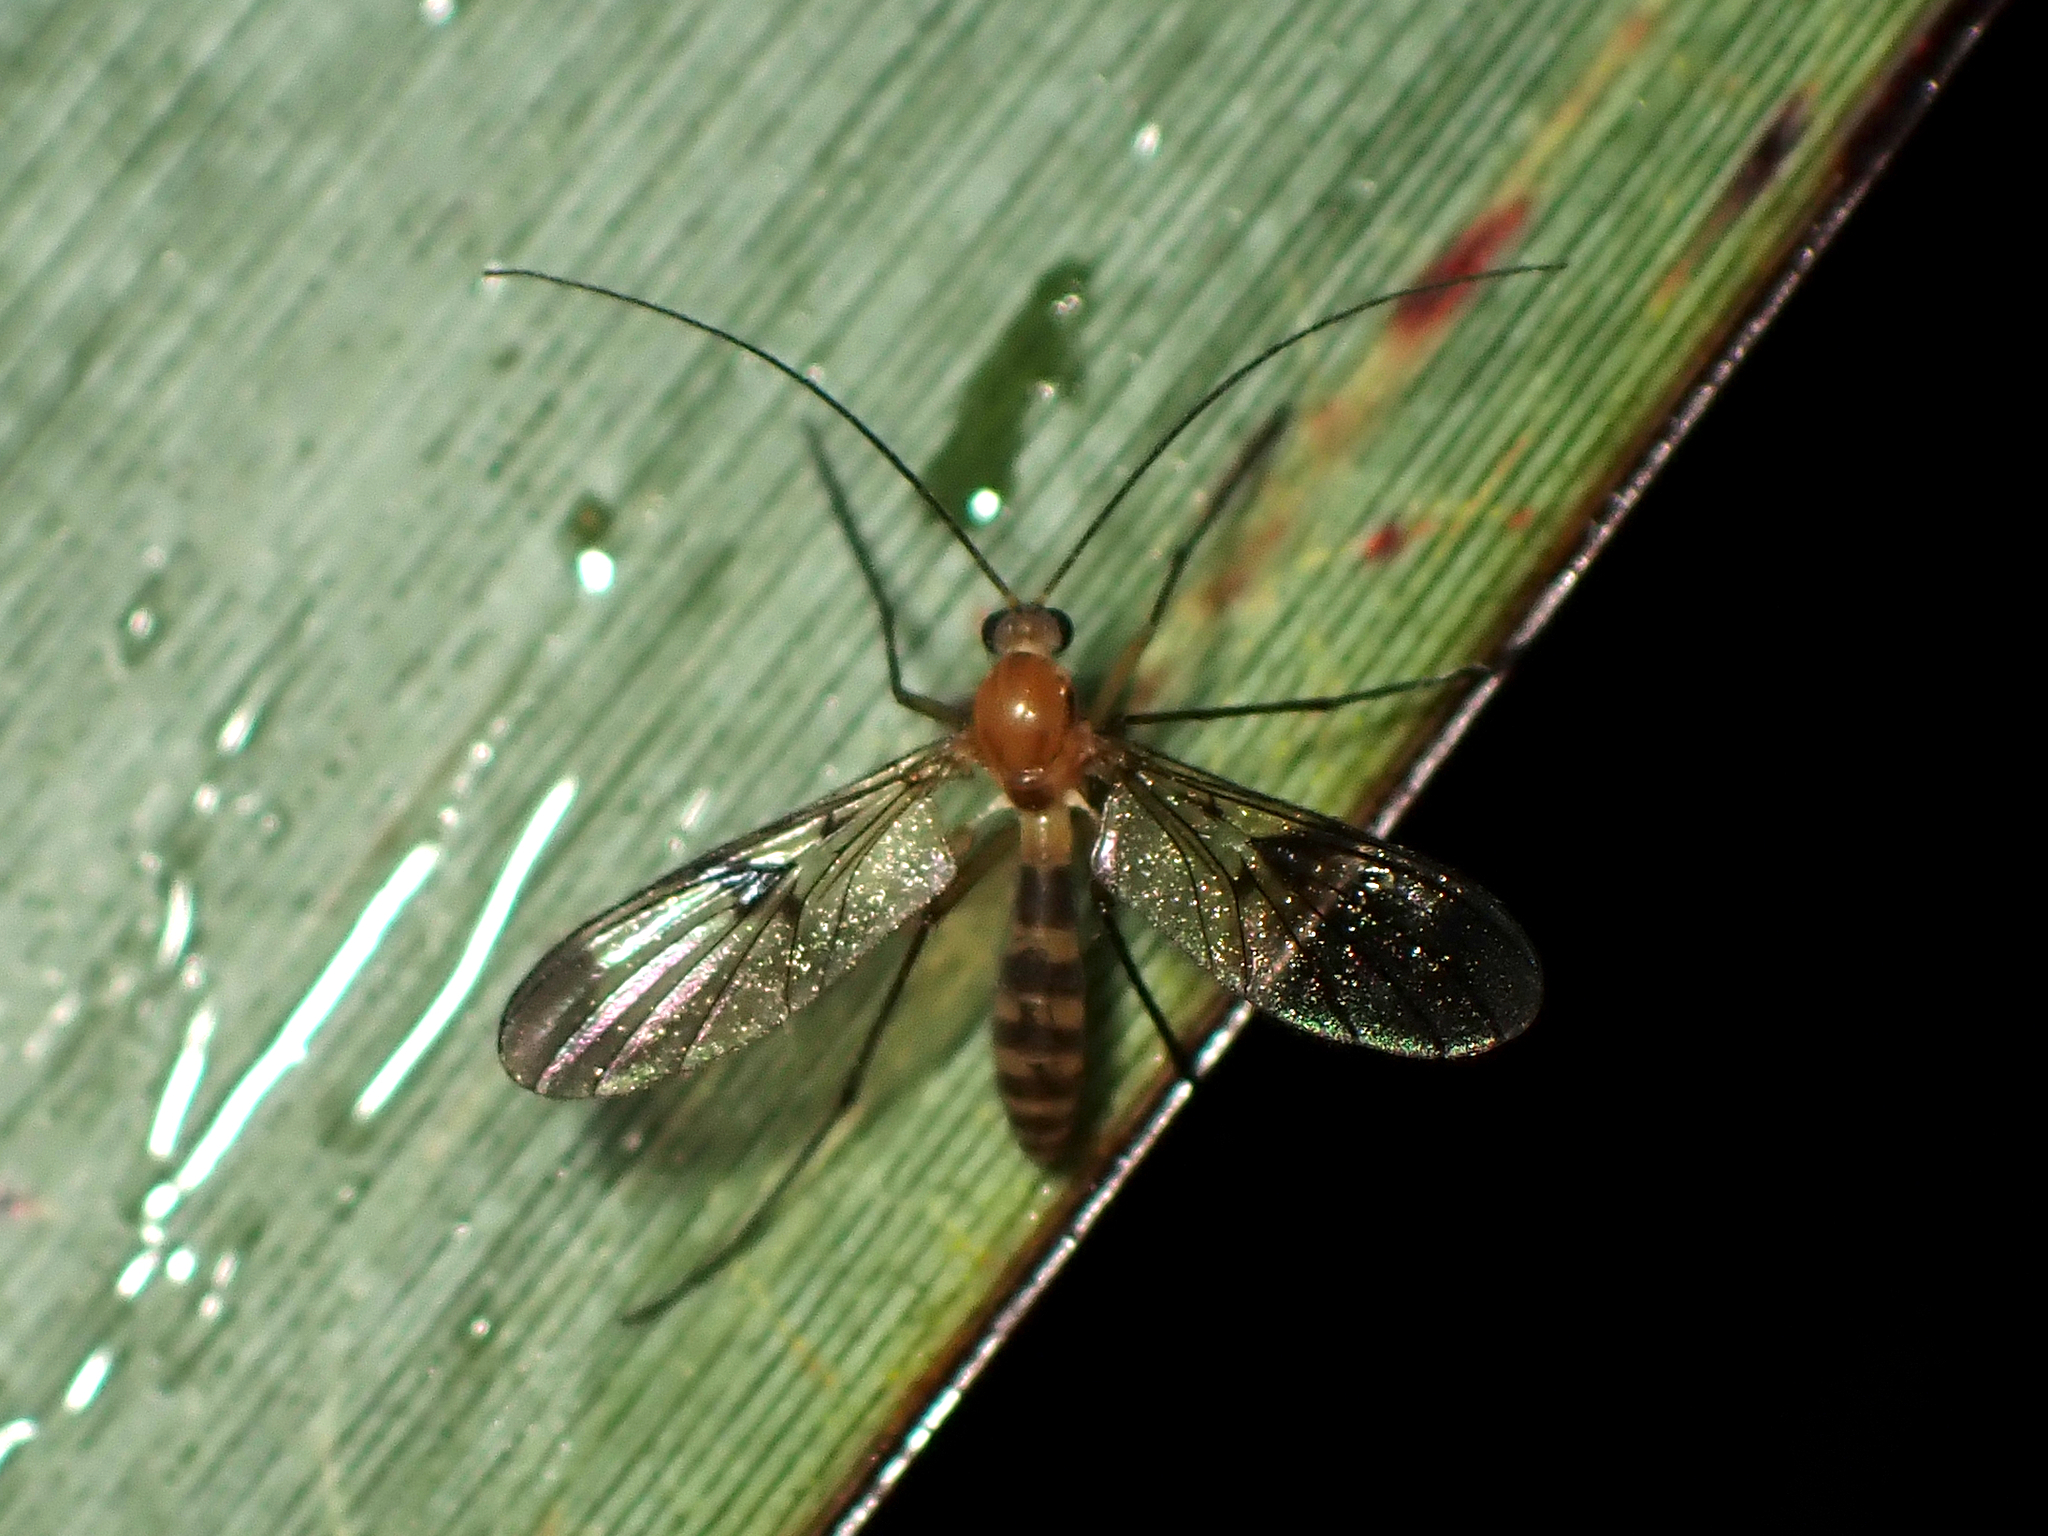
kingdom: Animalia
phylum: Arthropoda
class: Insecta
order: Diptera
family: Keroplatidae
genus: Macrocera
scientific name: Macrocera scoparia
